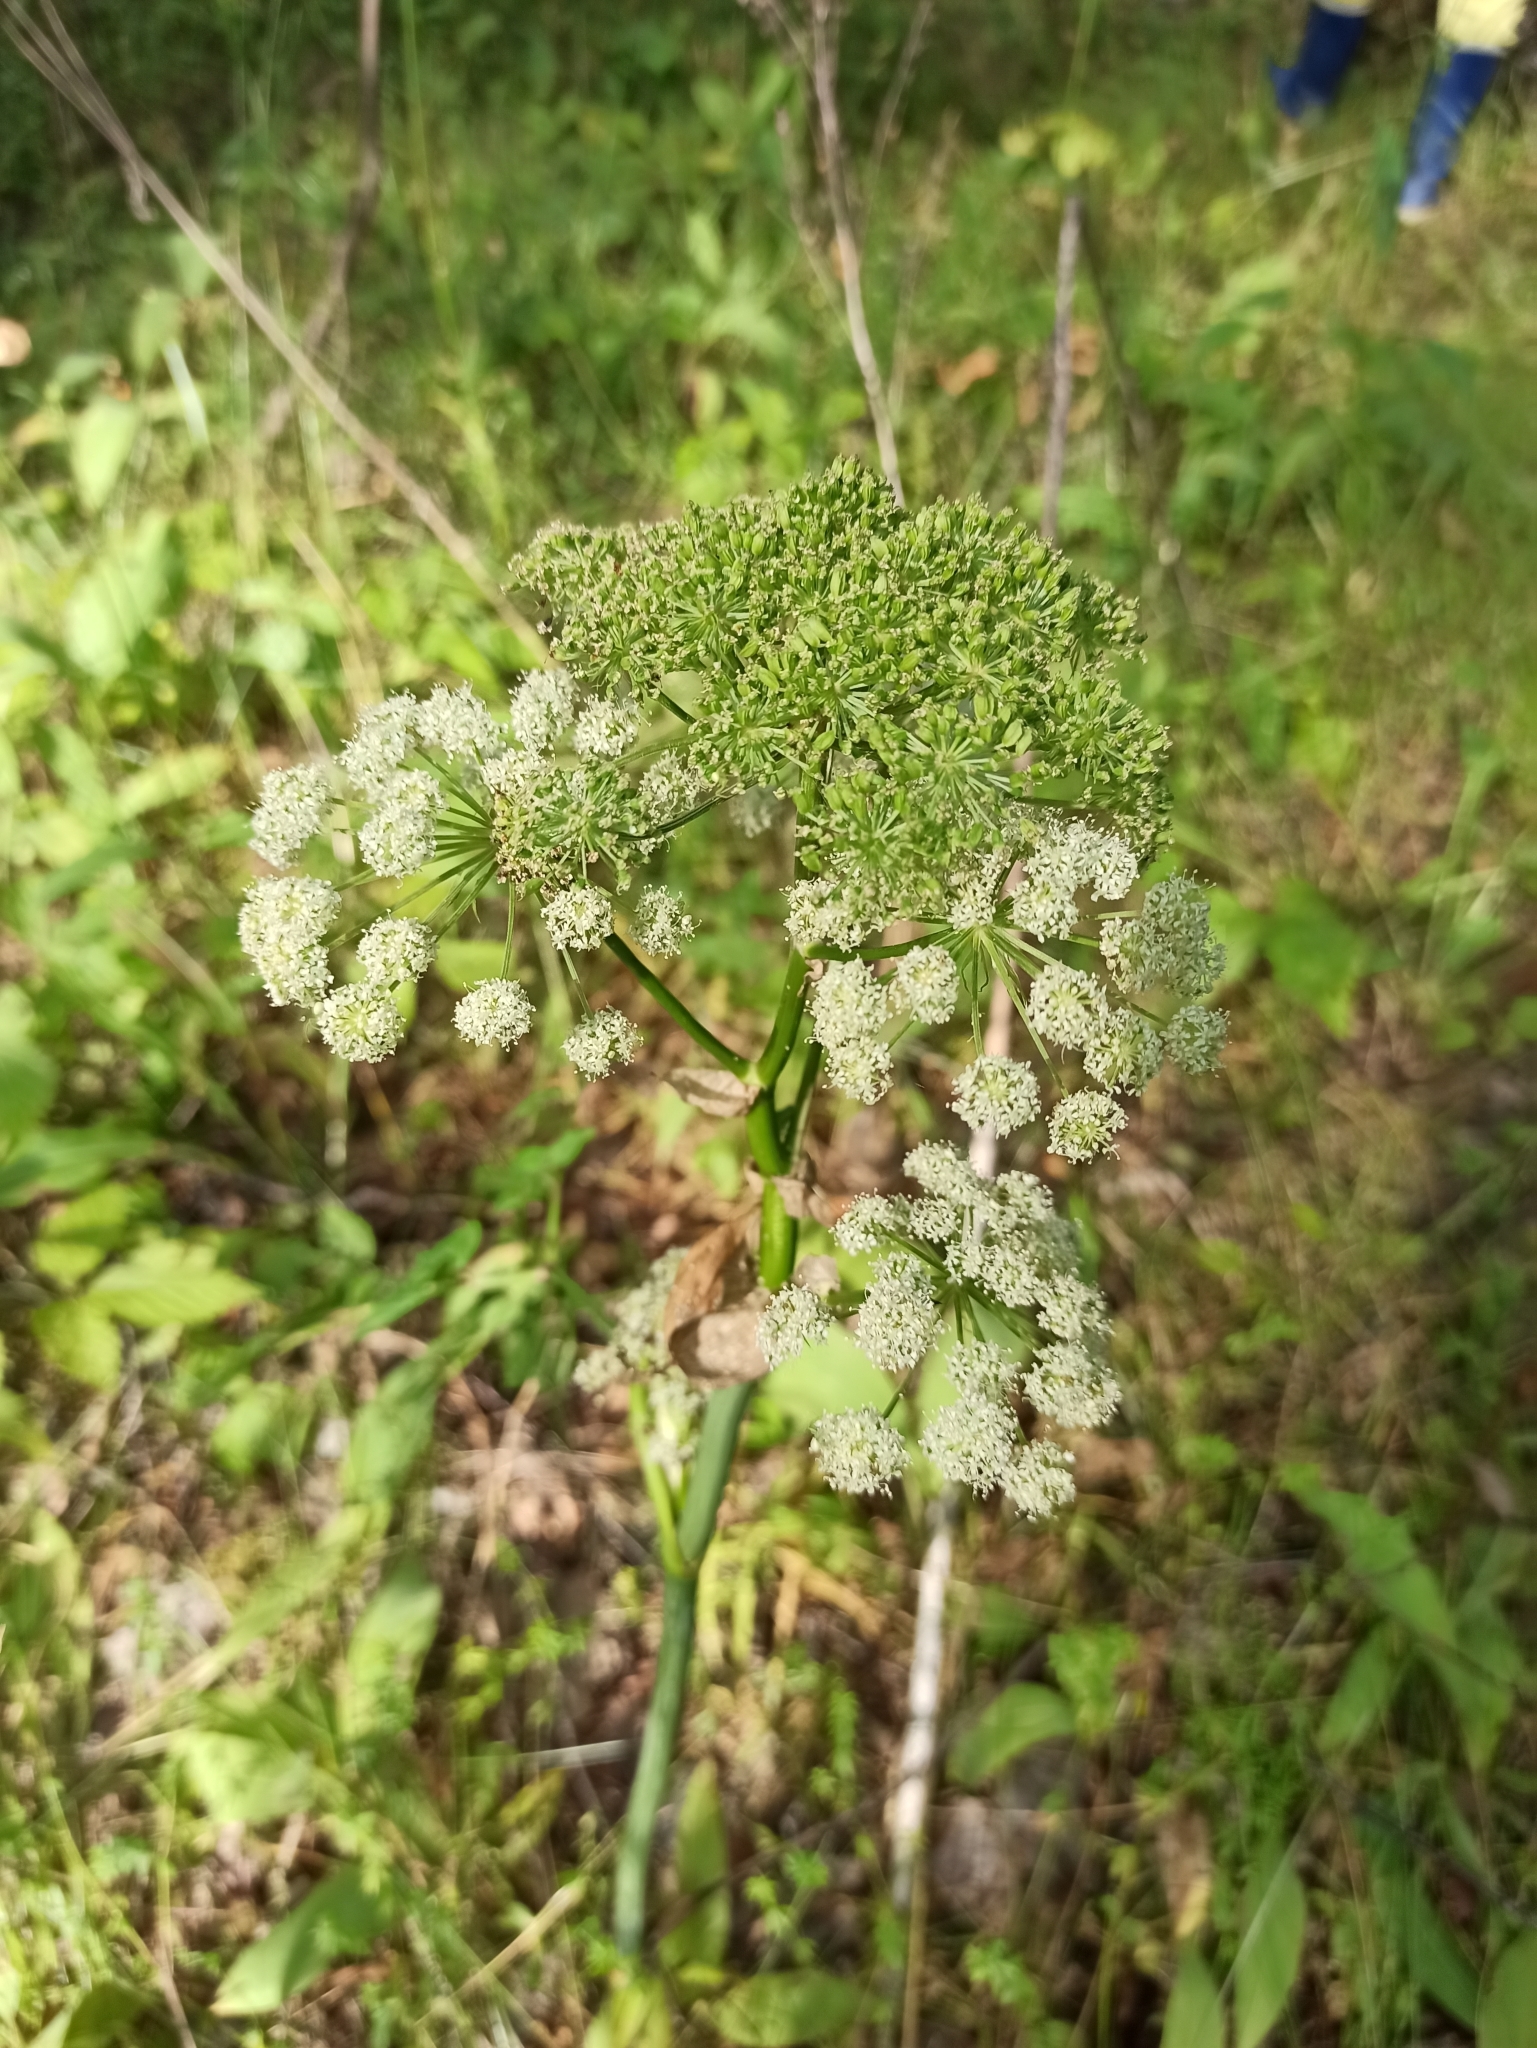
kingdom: Plantae
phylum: Tracheophyta
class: Magnoliopsida
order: Apiales
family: Apiaceae
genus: Angelica
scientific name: Angelica sylvestris
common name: Wild angelica
